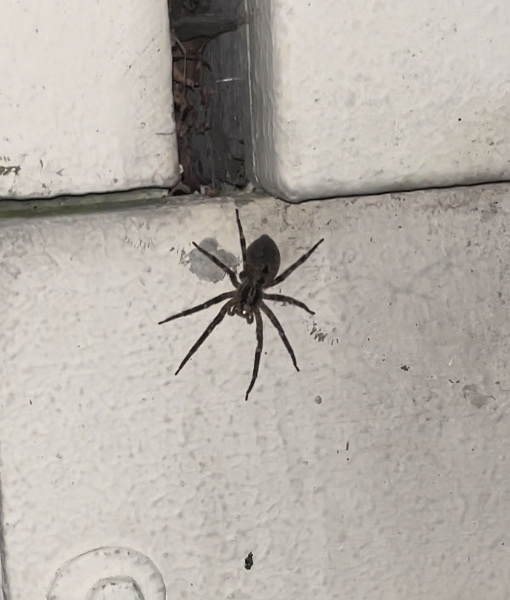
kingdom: Animalia
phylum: Arthropoda
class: Arachnida
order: Araneae
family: Zoropsidae
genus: Zoropsis
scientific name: Zoropsis spinimana
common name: Zoropsid spider
